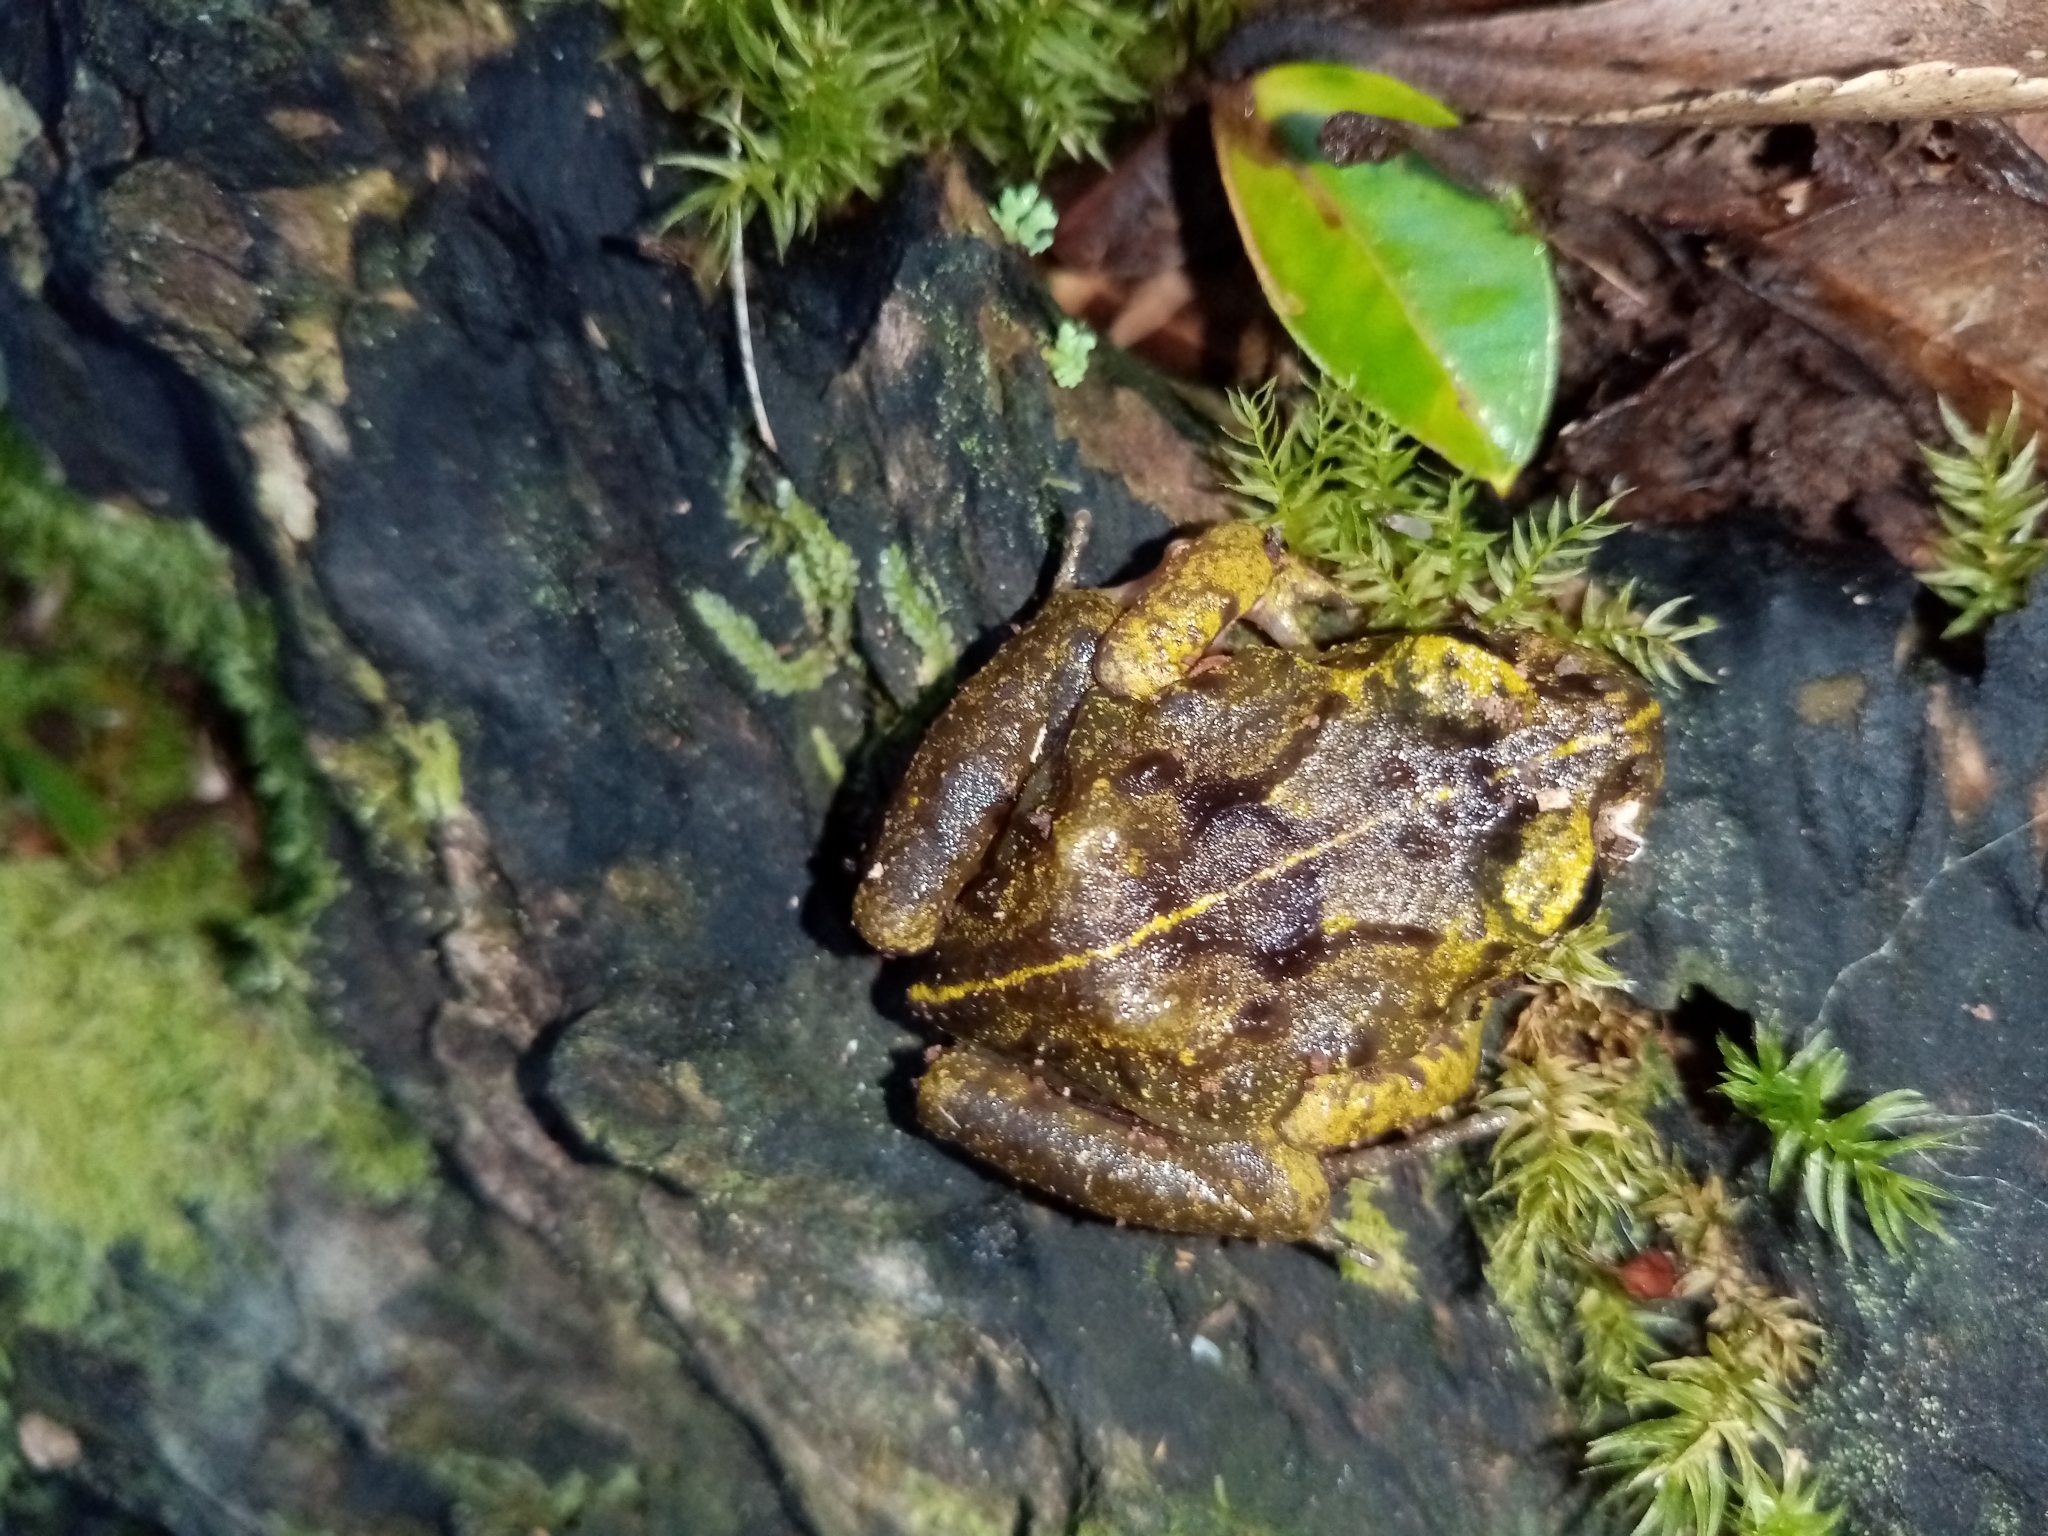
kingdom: Animalia
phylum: Chordata
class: Amphibia
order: Anura
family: Alsodidae
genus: Eupsophus
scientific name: Eupsophus emiliopugini
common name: Emilio's ground frog
